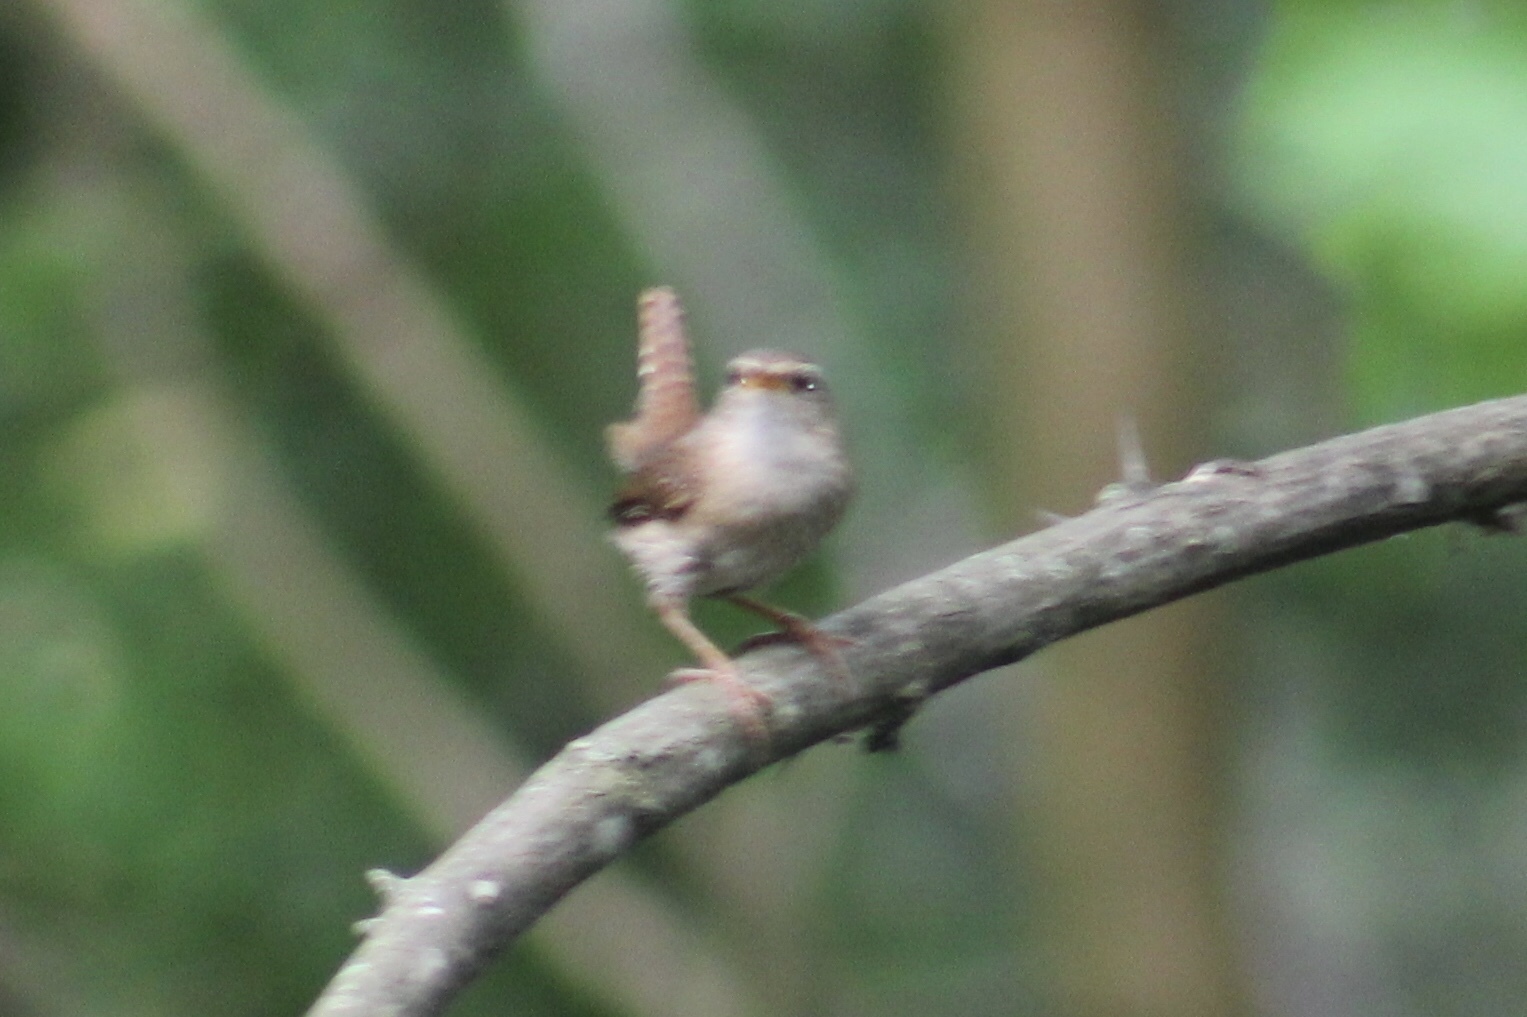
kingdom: Animalia
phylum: Chordata
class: Aves
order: Passeriformes
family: Troglodytidae
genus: Troglodytes
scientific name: Troglodytes troglodytes
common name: Eurasian wren
